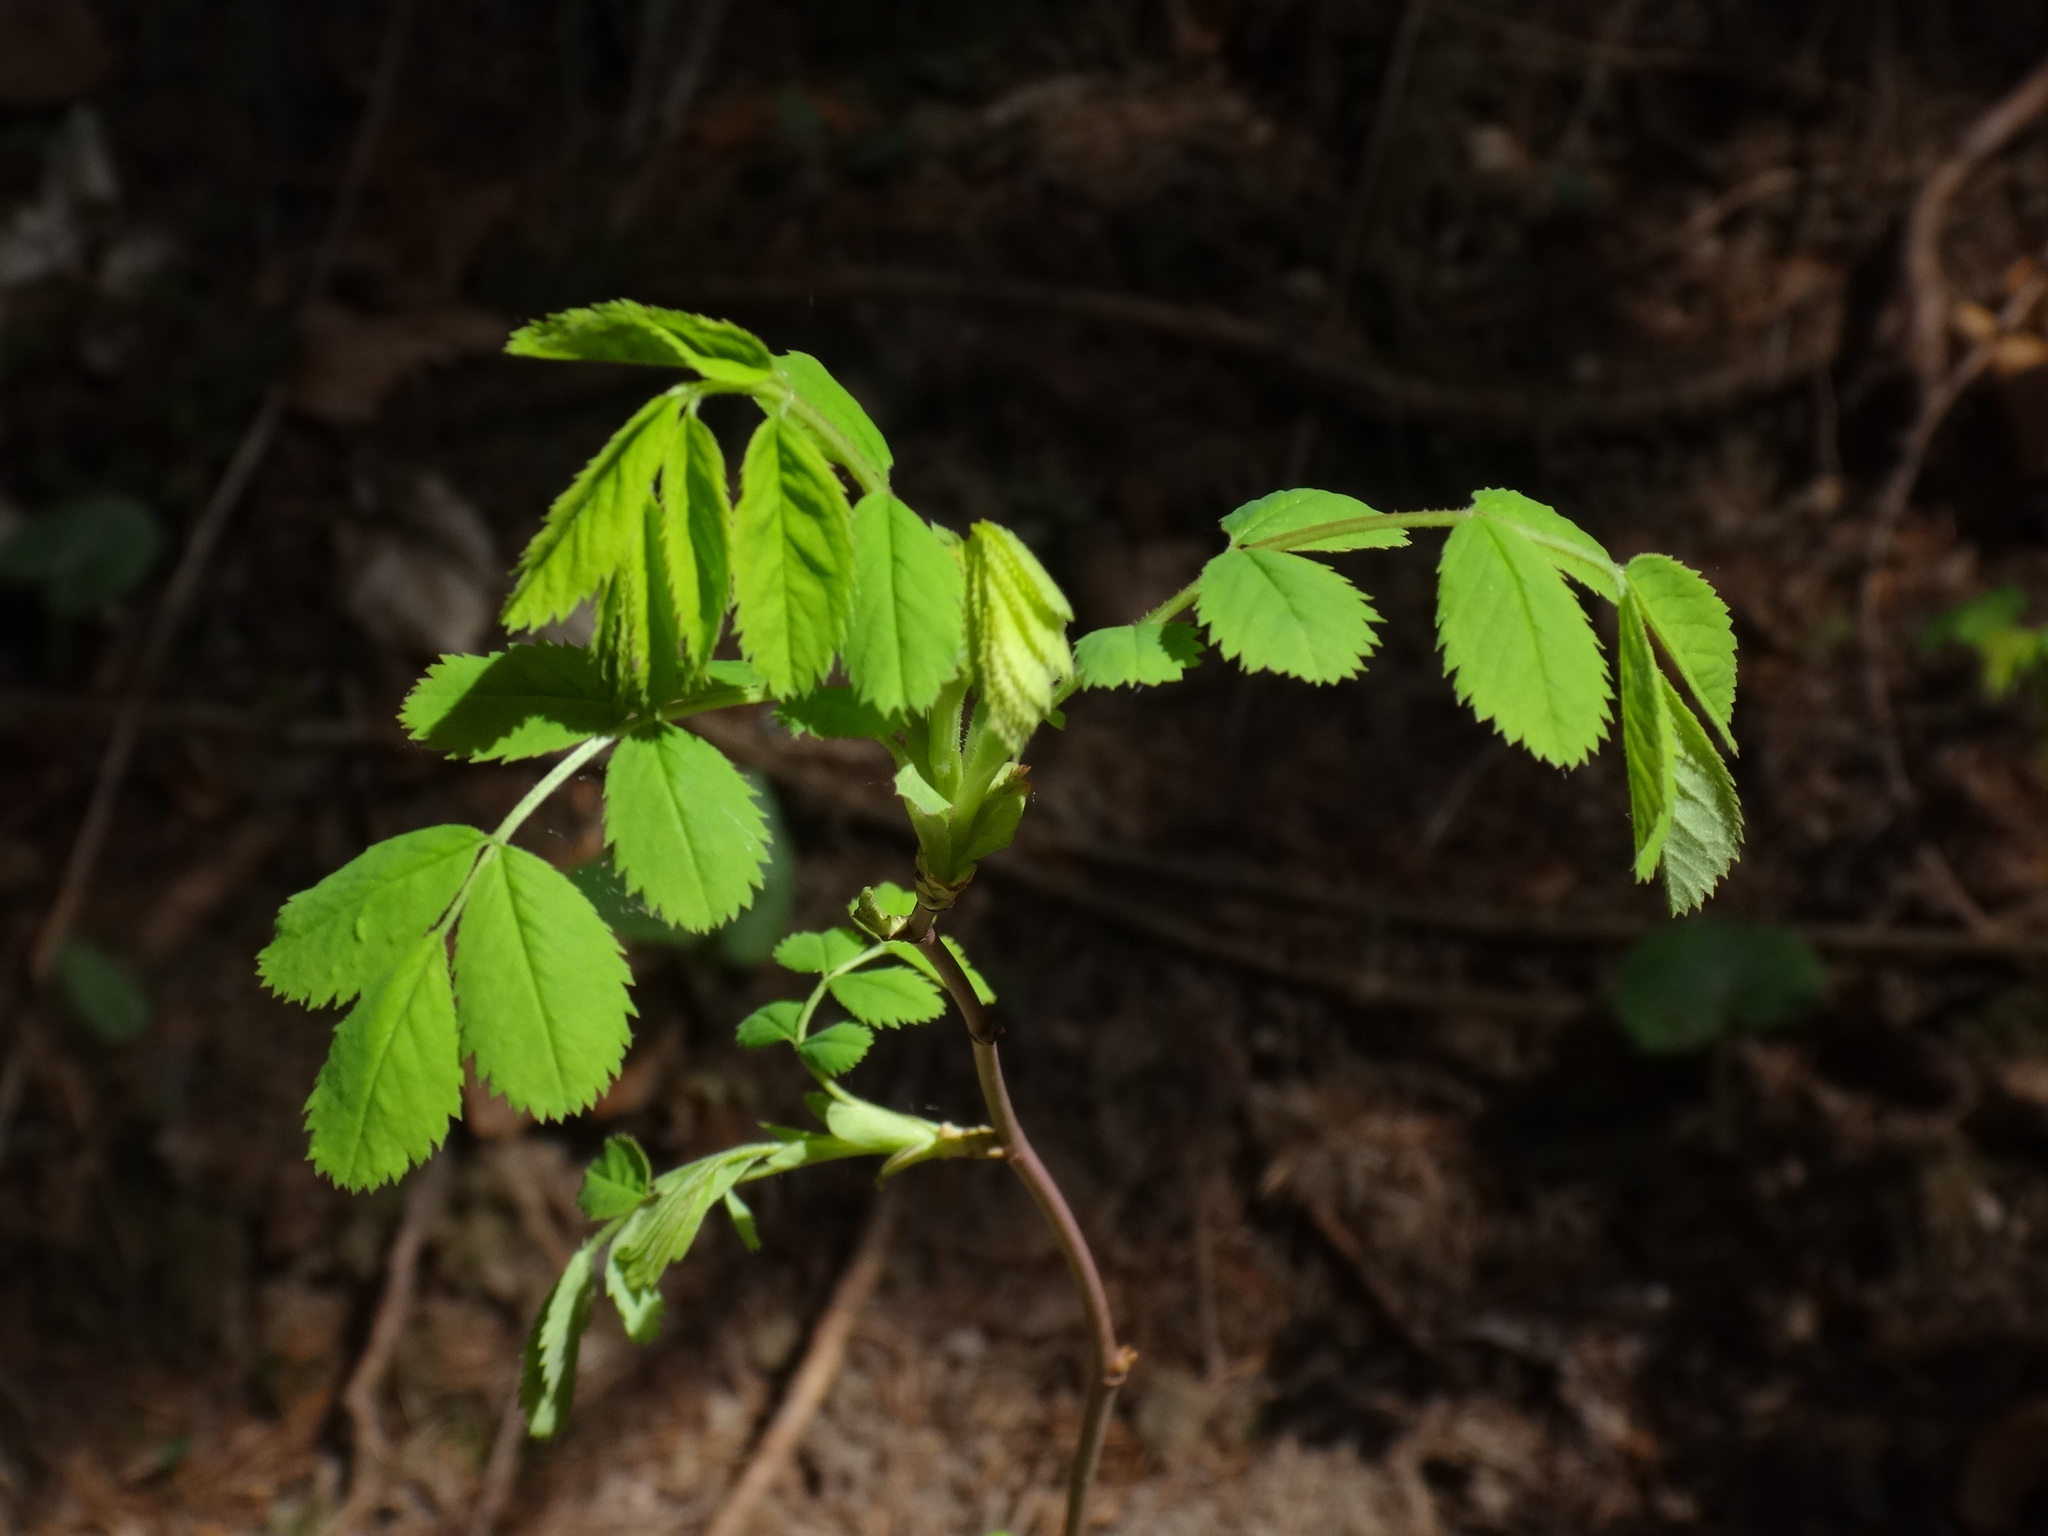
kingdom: Plantae
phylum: Tracheophyta
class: Magnoliopsida
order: Rosales
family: Rosaceae
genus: Rosa
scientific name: Rosa arvensis
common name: Field rose
